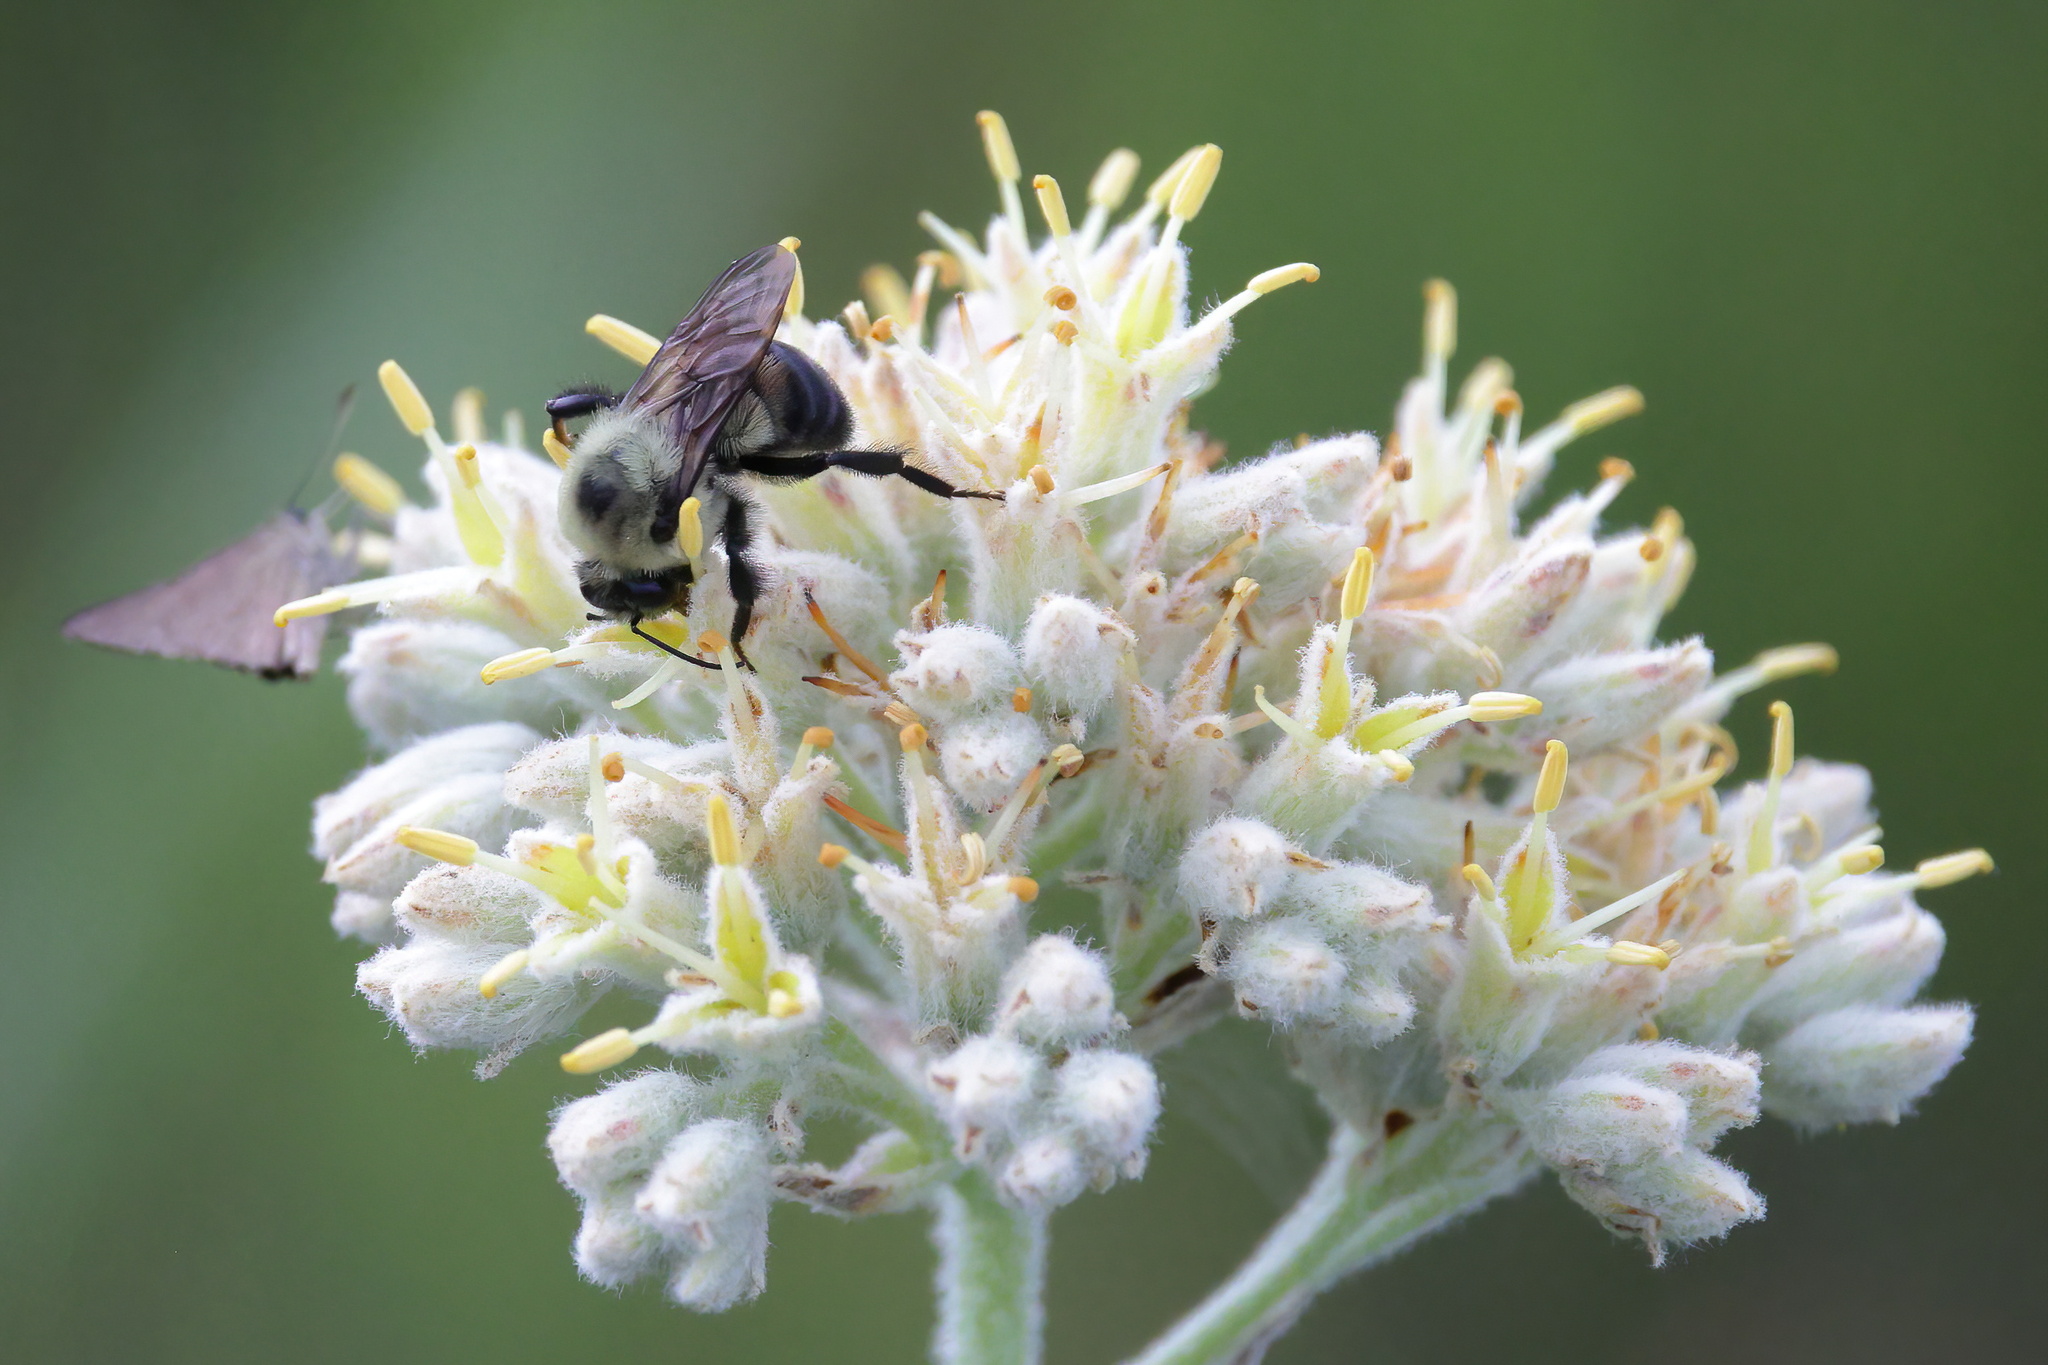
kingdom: Animalia
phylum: Arthropoda
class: Insecta
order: Hymenoptera
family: Apidae
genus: Bombus
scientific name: Bombus griseocollis
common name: Brown-belted bumble bee
